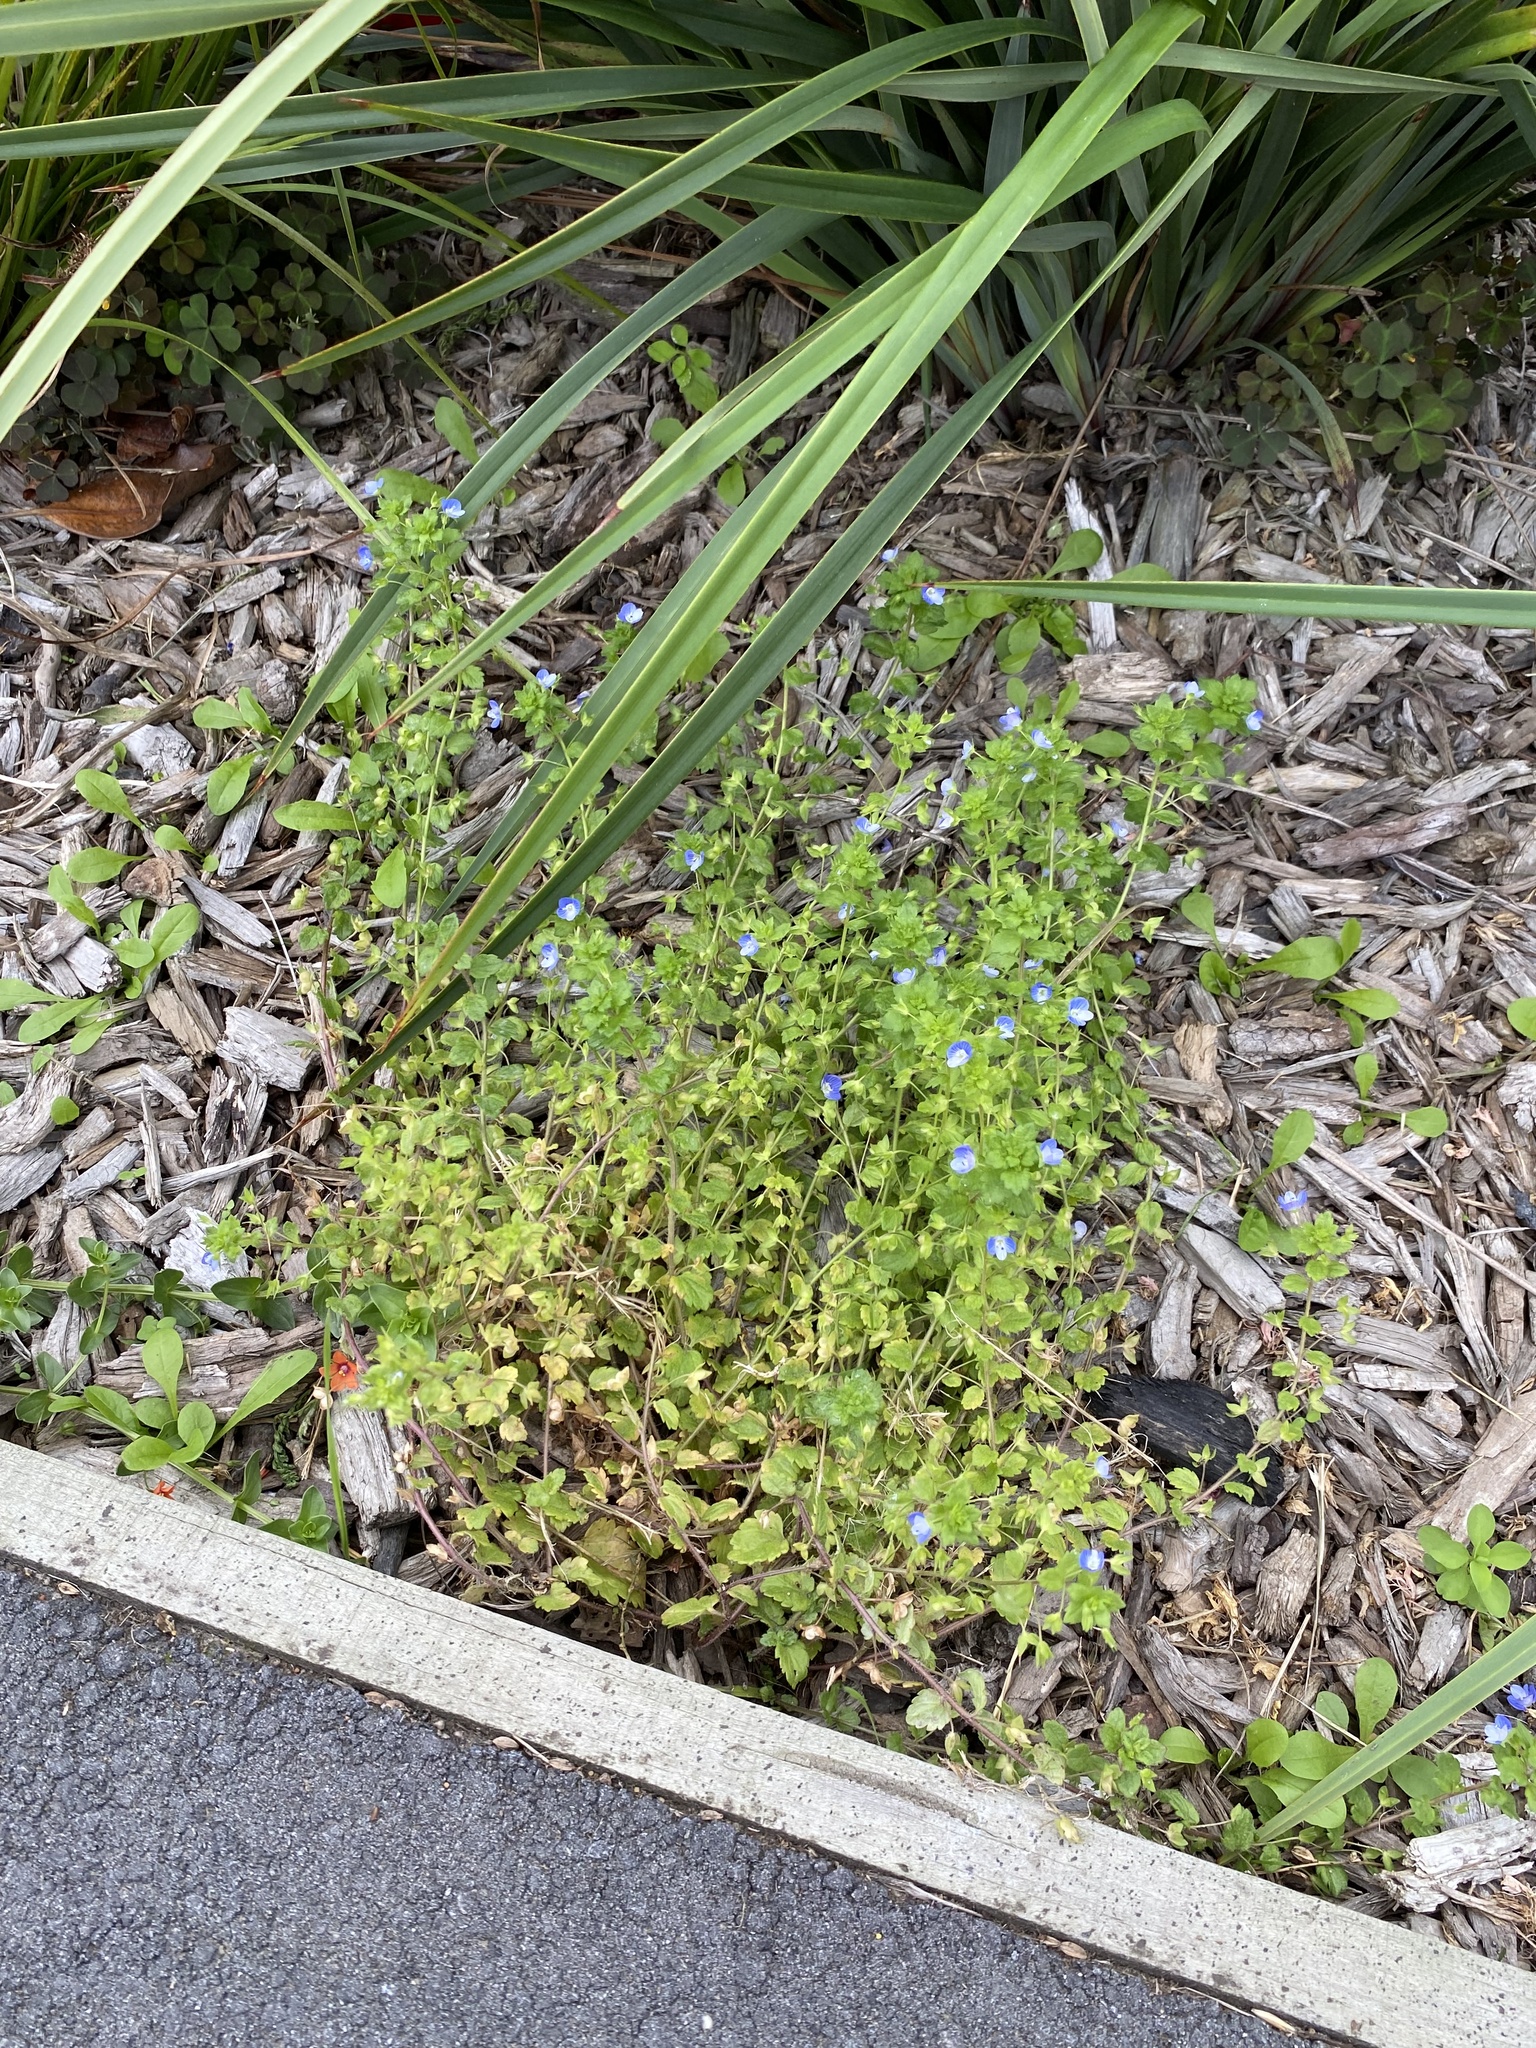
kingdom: Plantae
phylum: Tracheophyta
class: Magnoliopsida
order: Lamiales
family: Plantaginaceae
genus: Veronica
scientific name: Veronica persica
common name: Common field-speedwell
